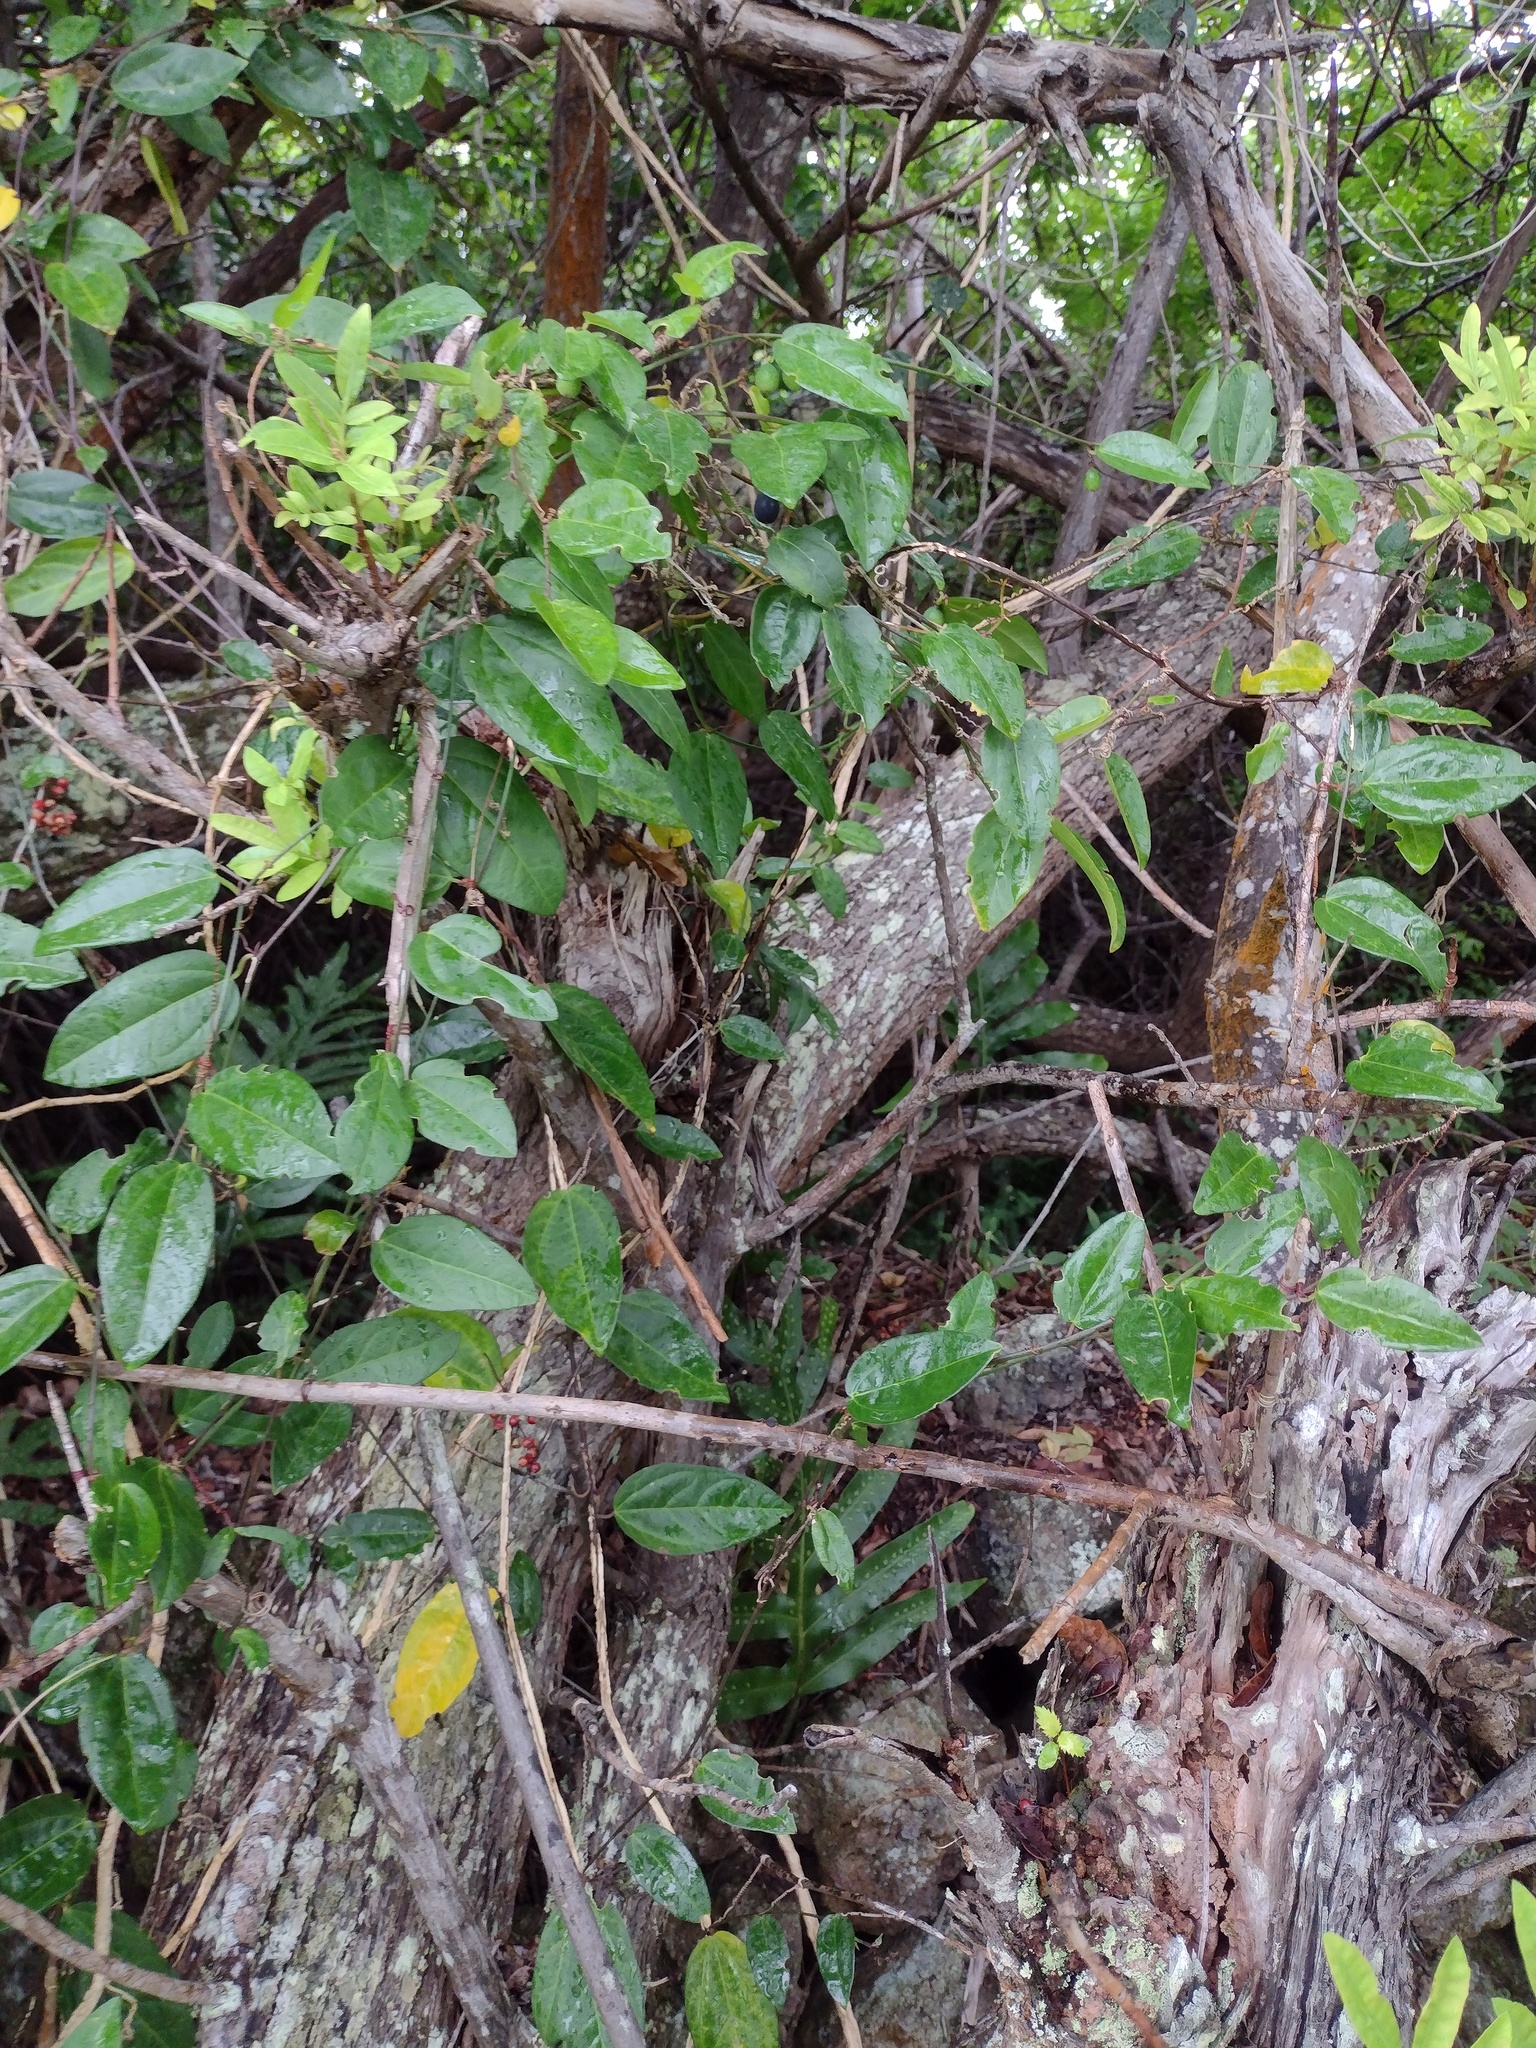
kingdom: Plantae
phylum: Tracheophyta
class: Magnoliopsida
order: Malpighiales
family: Passifloraceae
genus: Passiflora
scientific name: Passiflora pallida
